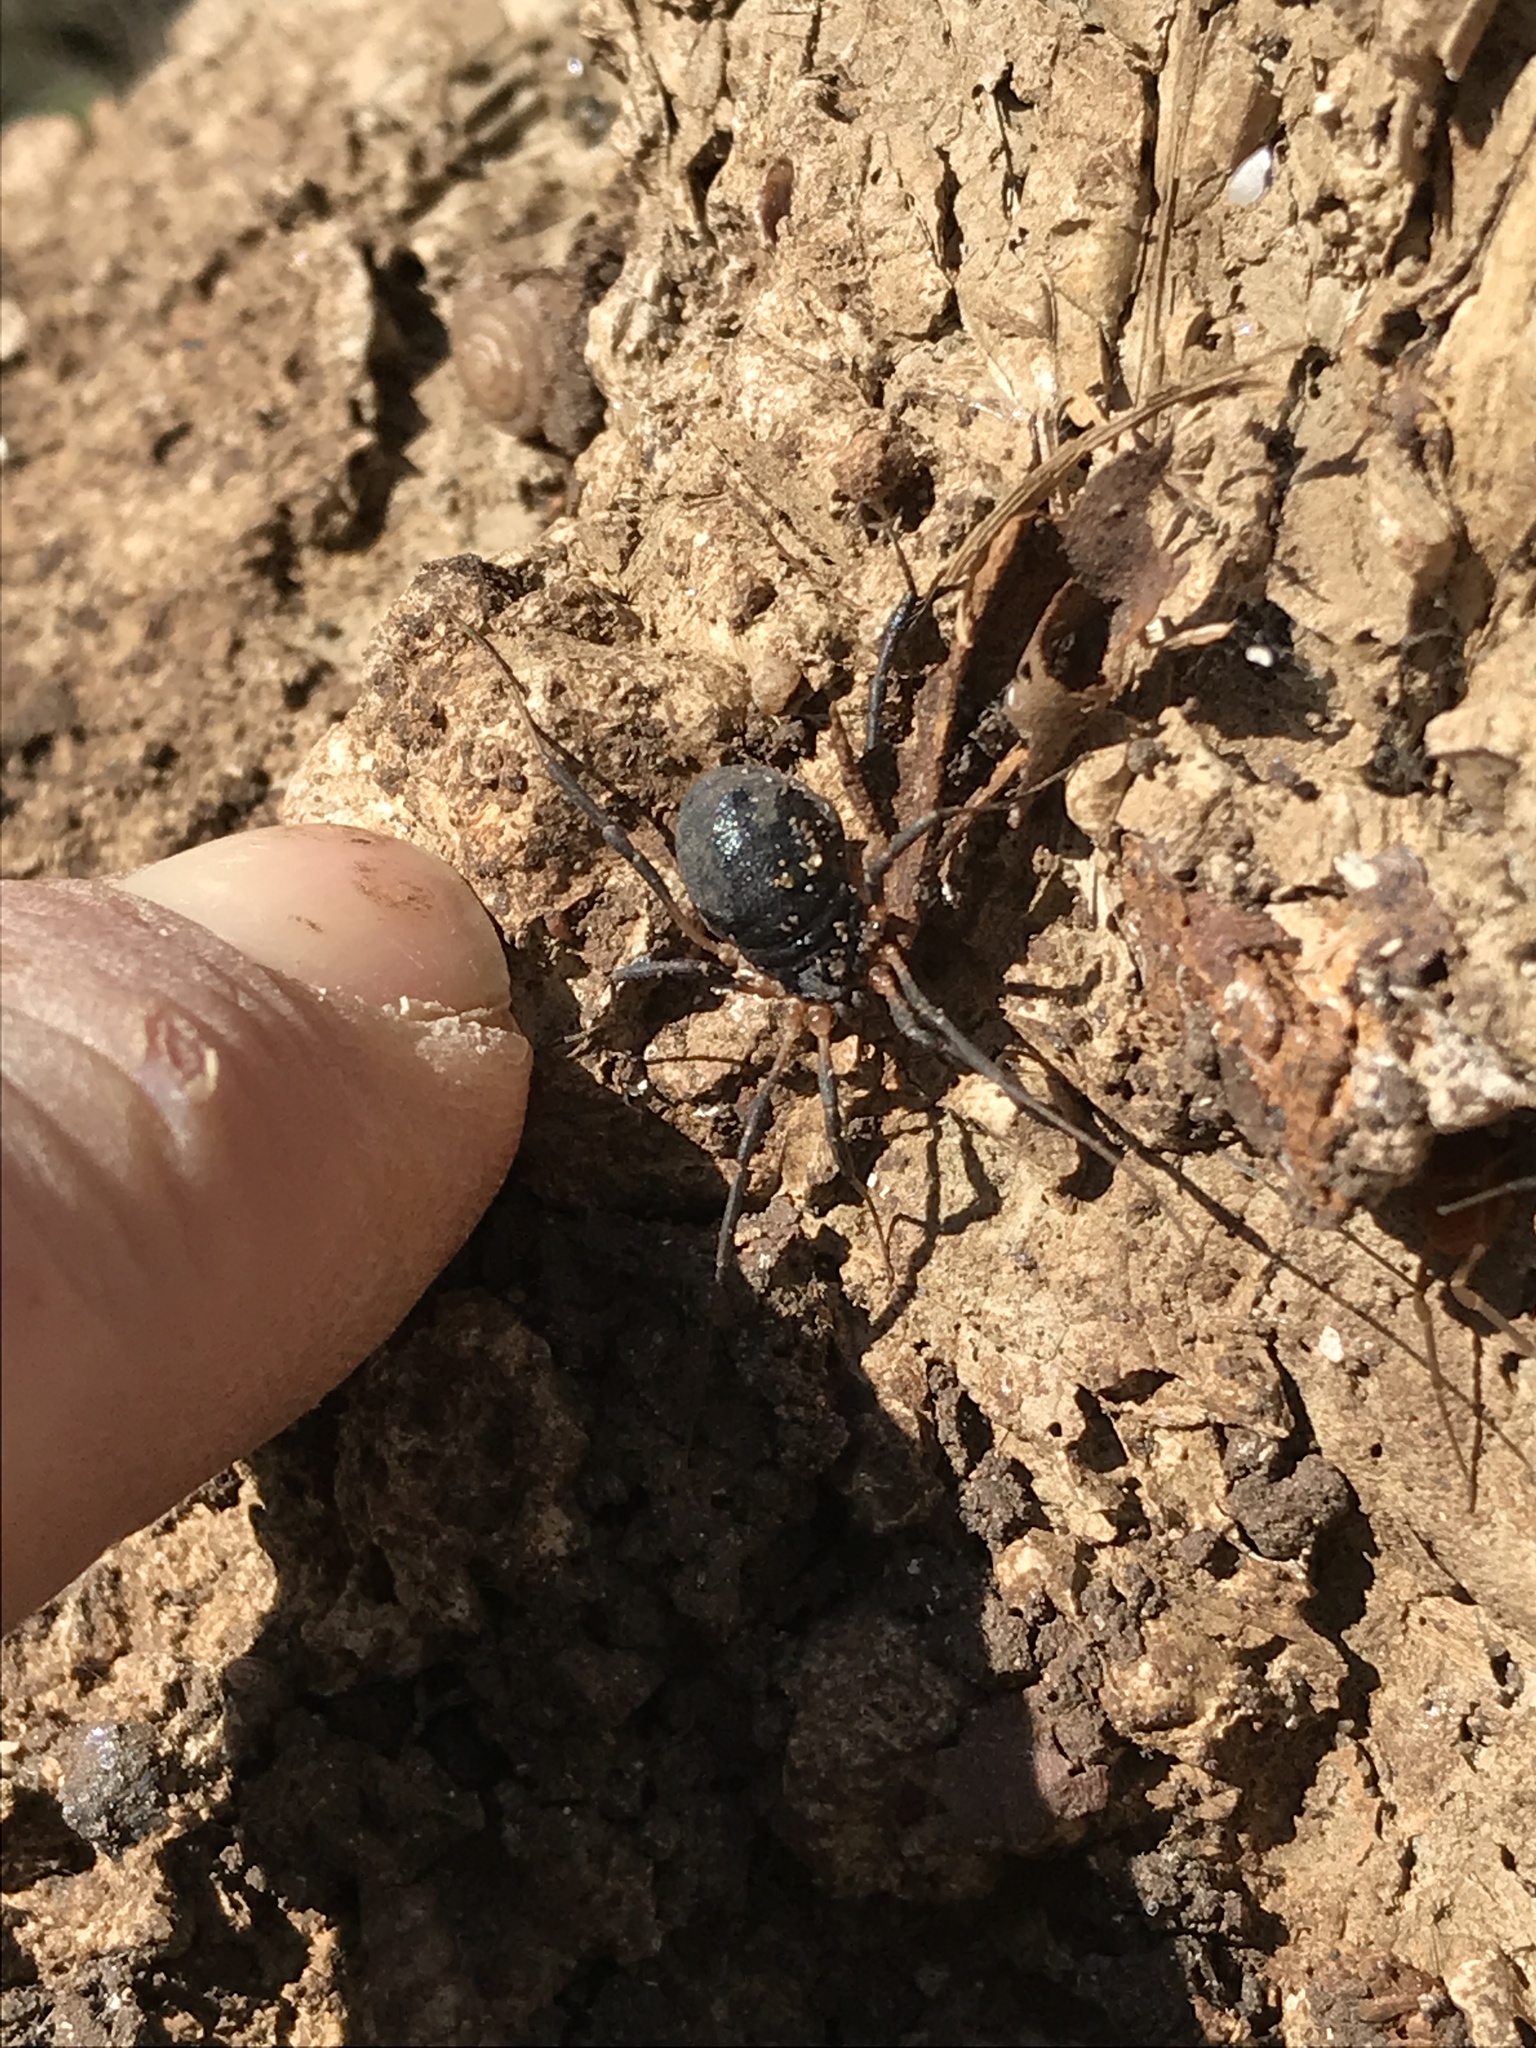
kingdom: Animalia
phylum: Arthropoda
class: Arachnida
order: Opiliones
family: Sclerosomatidae
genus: Eumesosoma
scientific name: Eumesosoma roeweri
